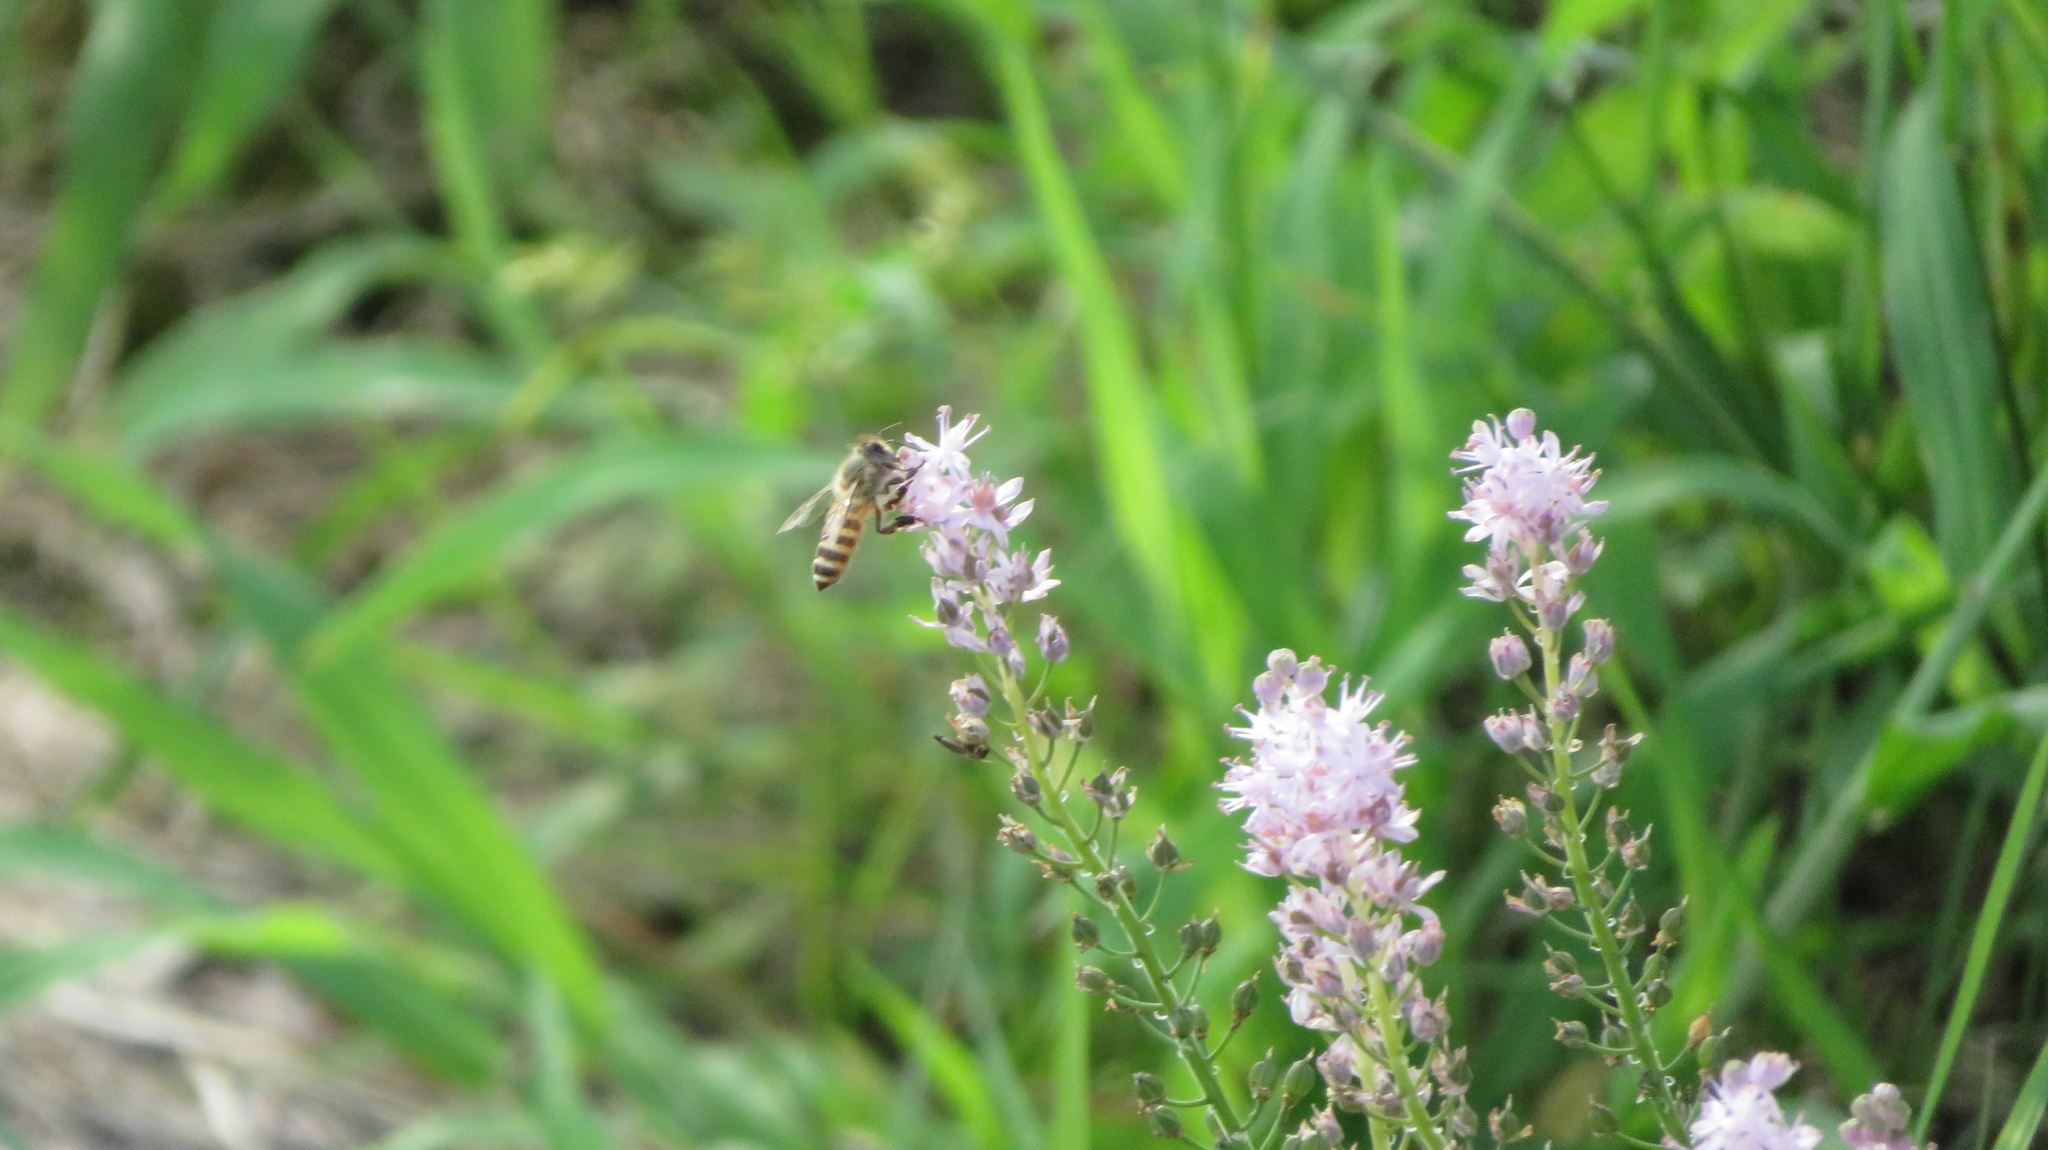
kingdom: Animalia
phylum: Arthropoda
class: Insecta
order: Hymenoptera
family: Apidae
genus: Apis
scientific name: Apis cerana
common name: Honey bee
